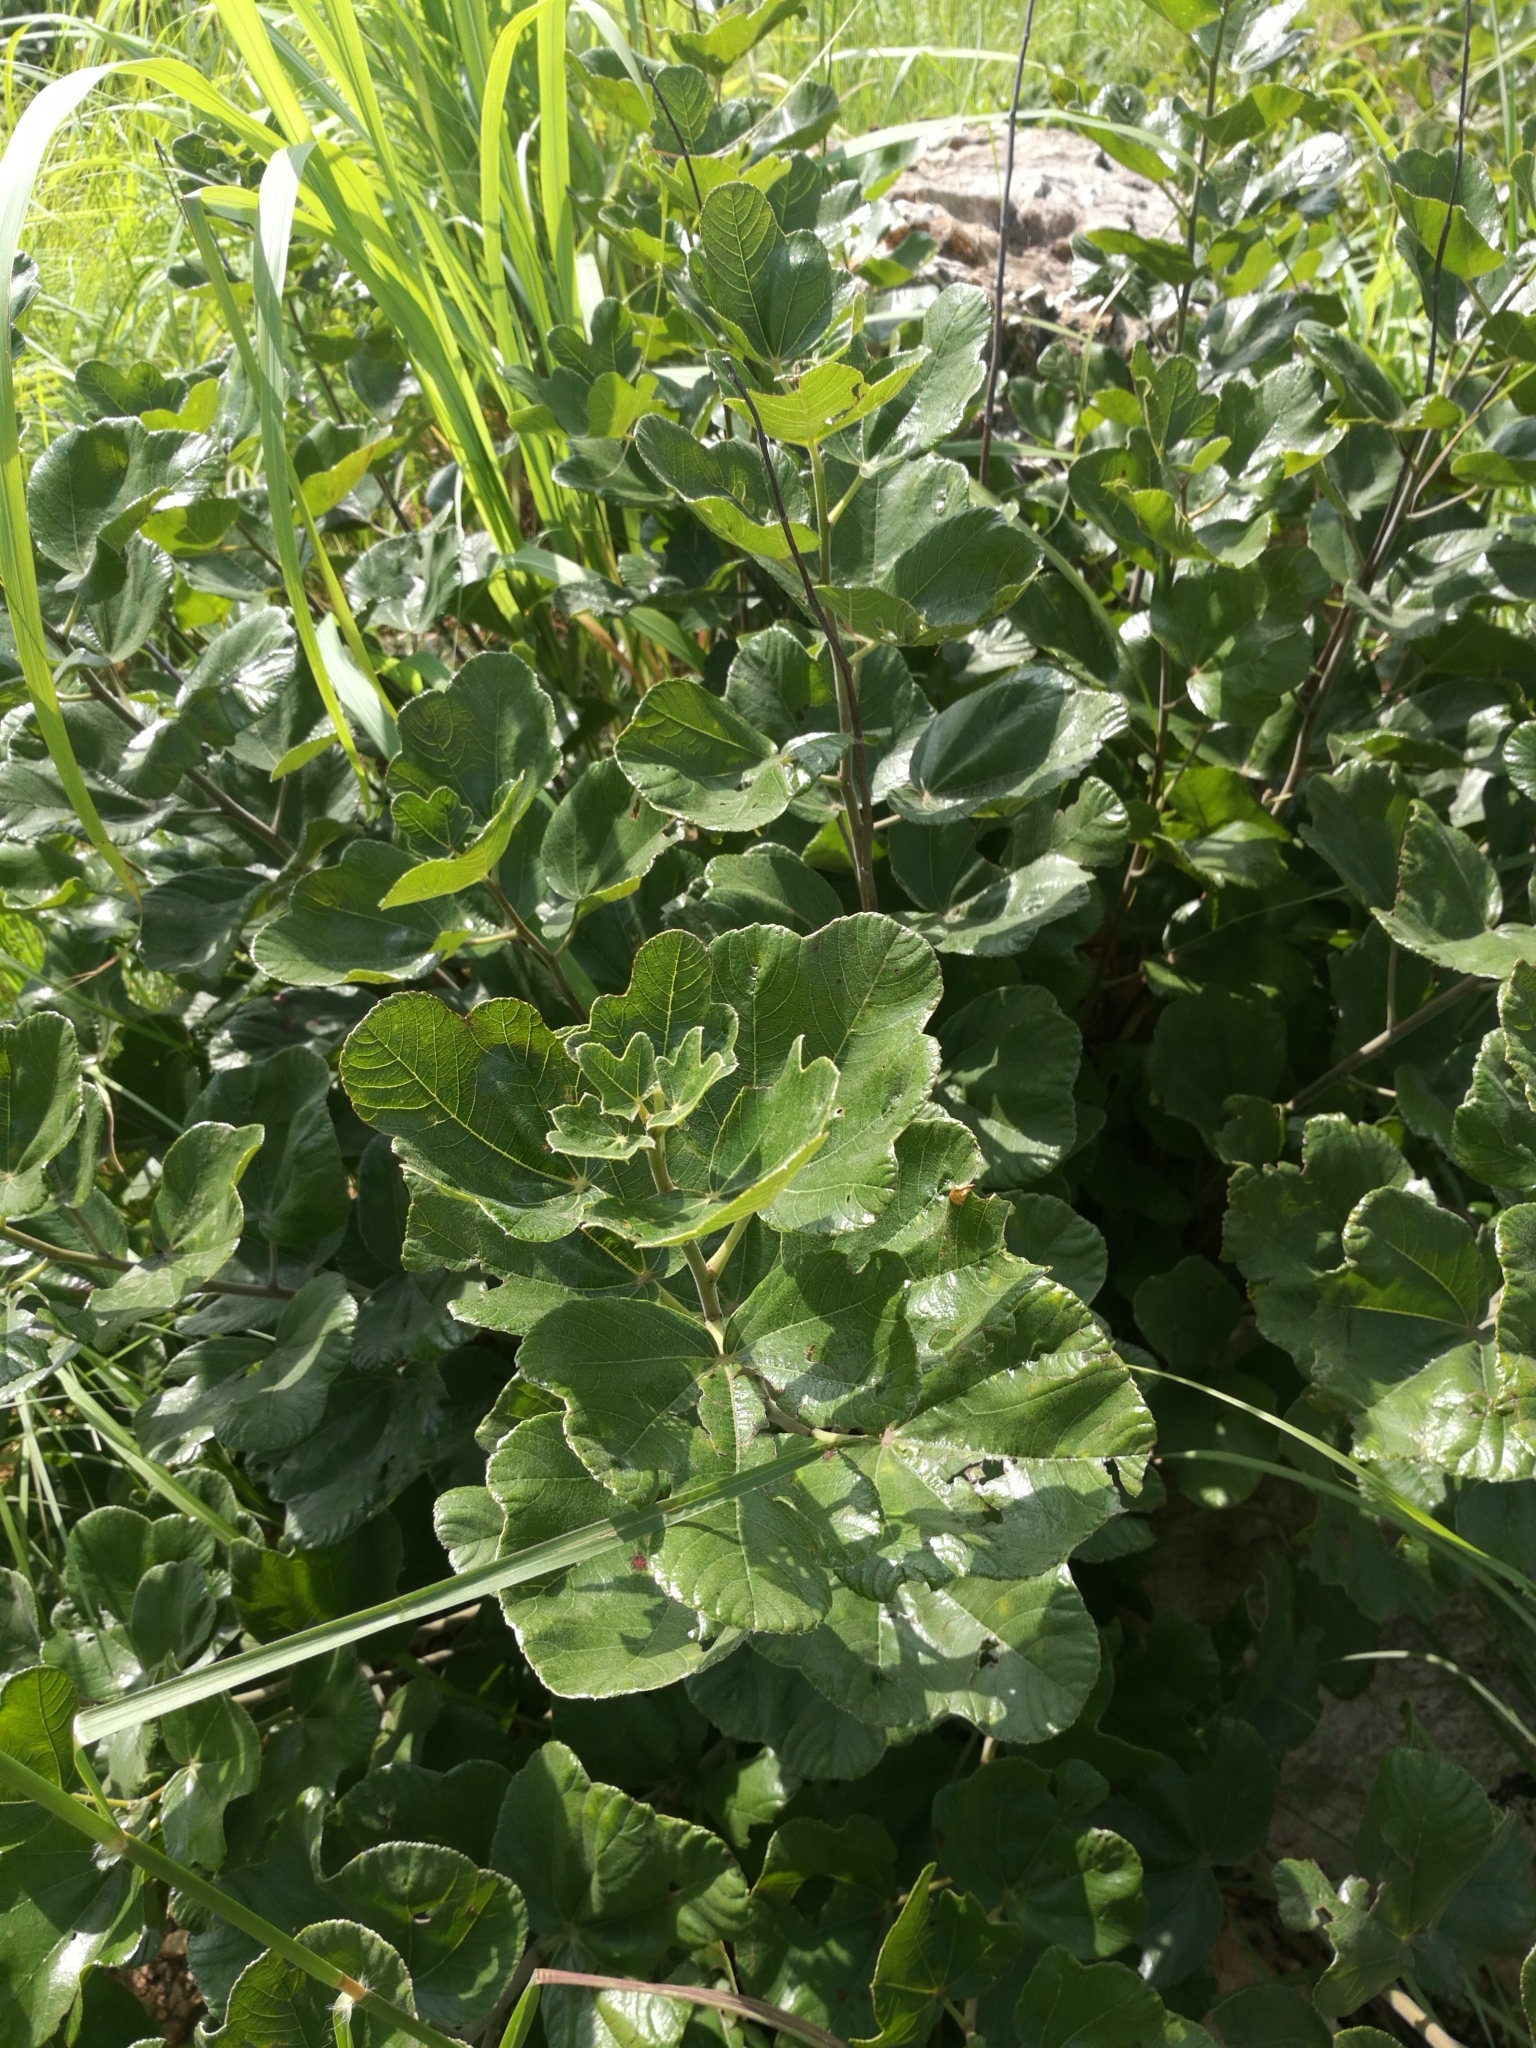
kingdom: Plantae
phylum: Tracheophyta
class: Magnoliopsida
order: Malvales
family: Cochlospermaceae
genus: Cochlospermum
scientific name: Cochlospermum planchonii
